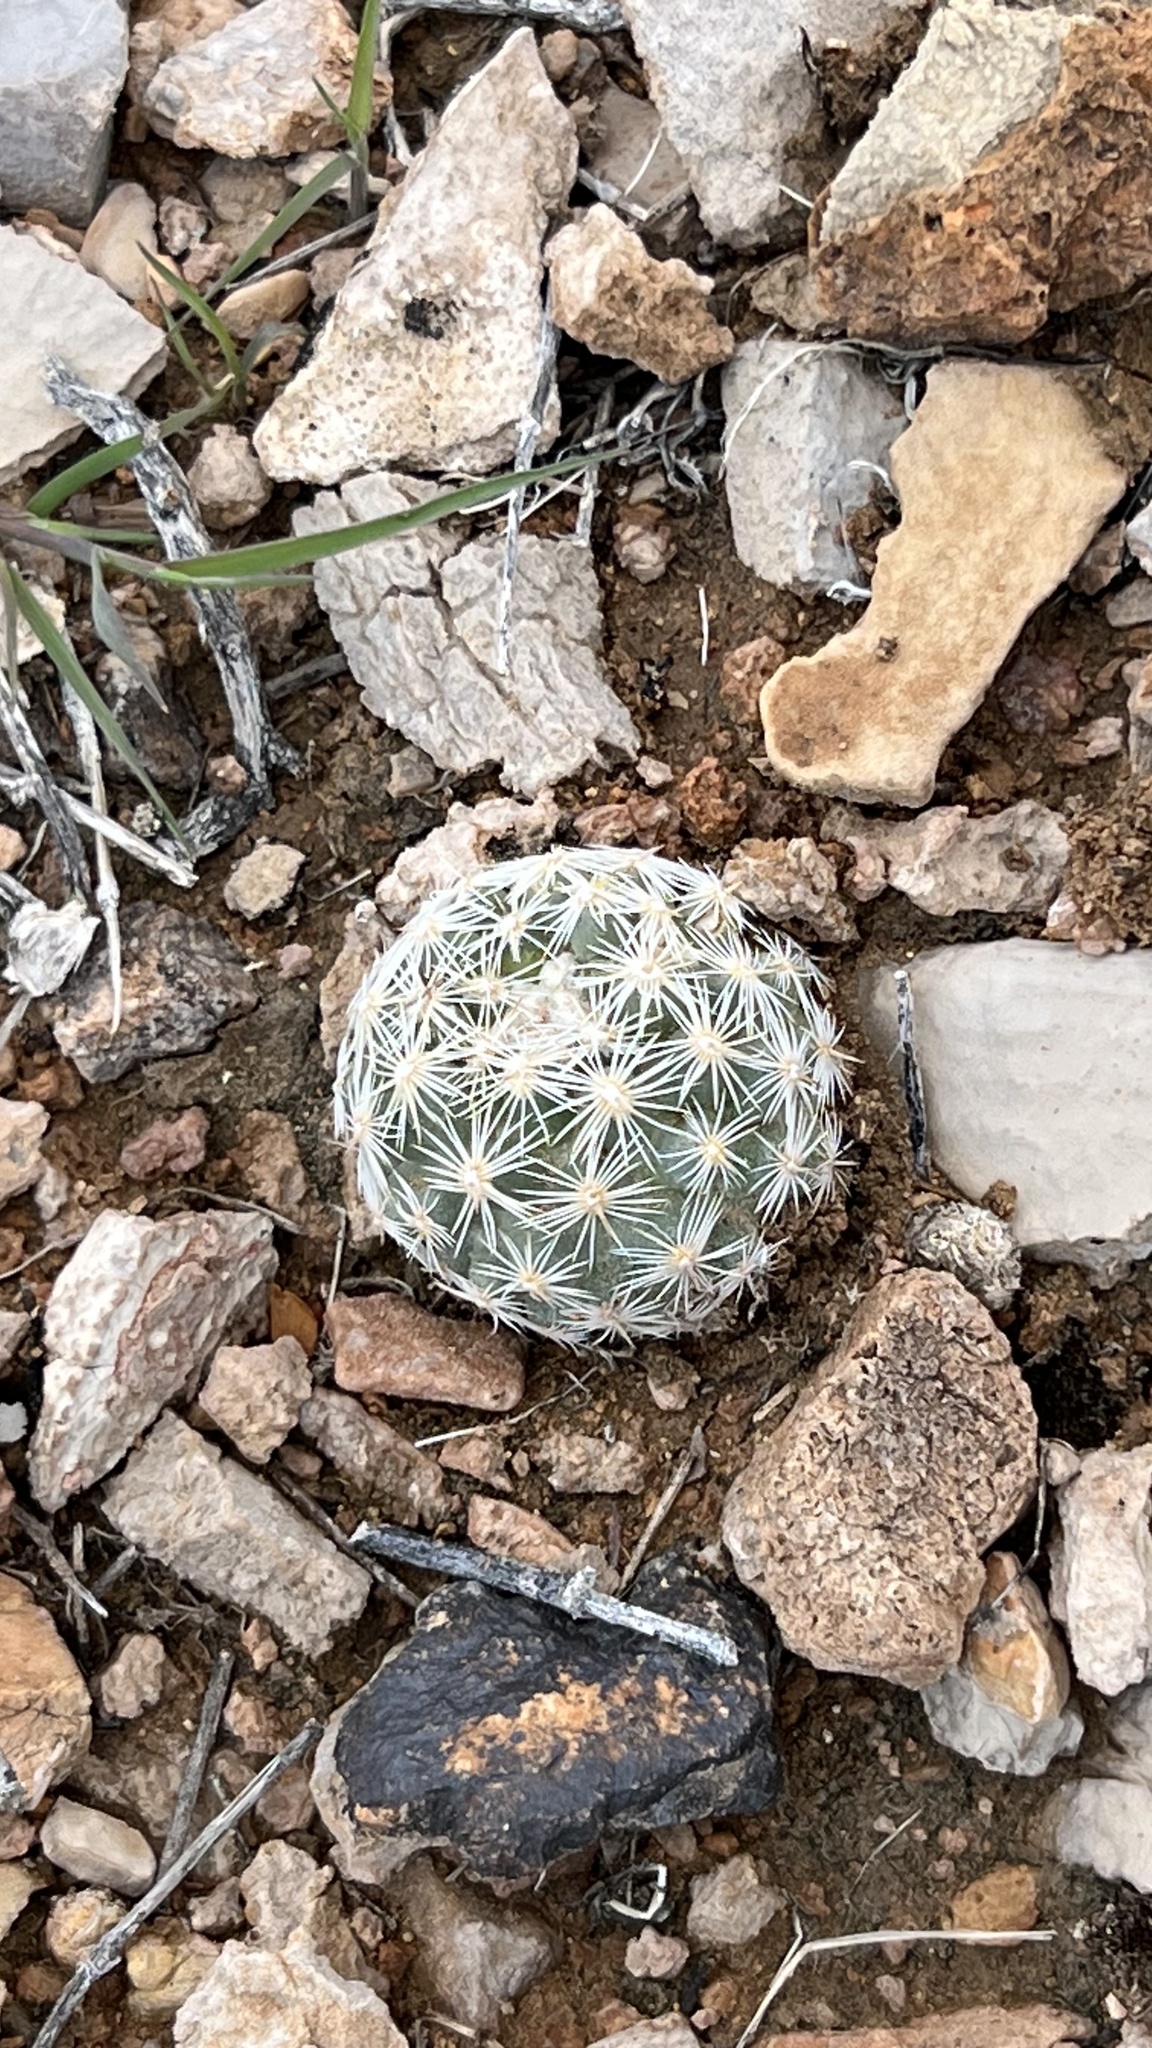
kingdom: Plantae
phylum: Tracheophyta
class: Magnoliopsida
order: Caryophyllales
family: Cactaceae
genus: Pelecyphora
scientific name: Pelecyphora dasyacantha
